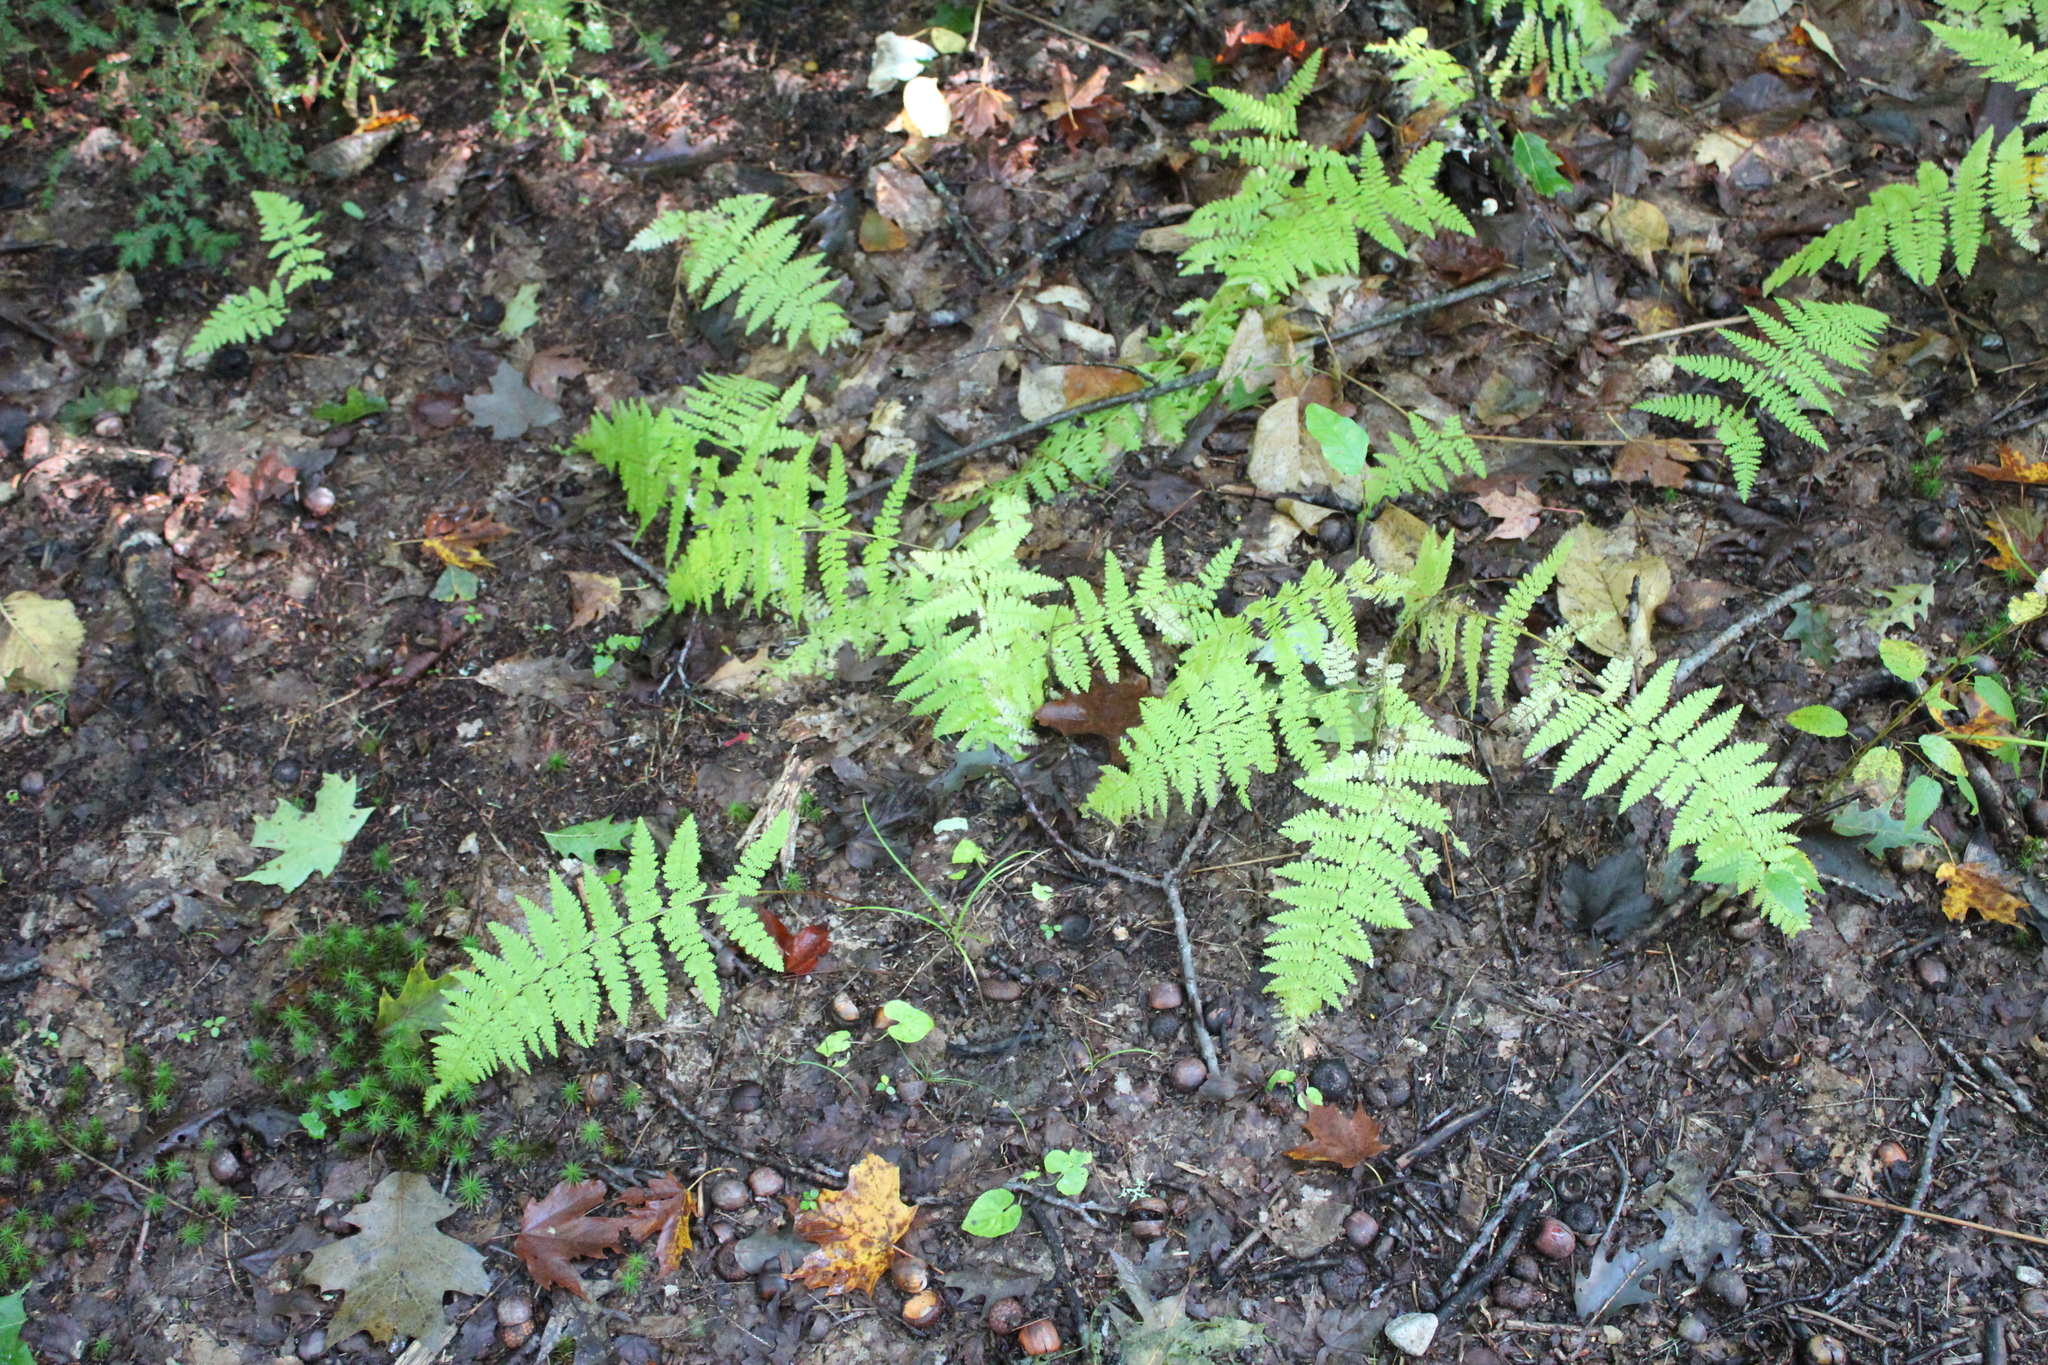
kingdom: Plantae
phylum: Tracheophyta
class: Polypodiopsida
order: Polypodiales
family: Dennstaedtiaceae
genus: Sitobolium
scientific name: Sitobolium punctilobum
